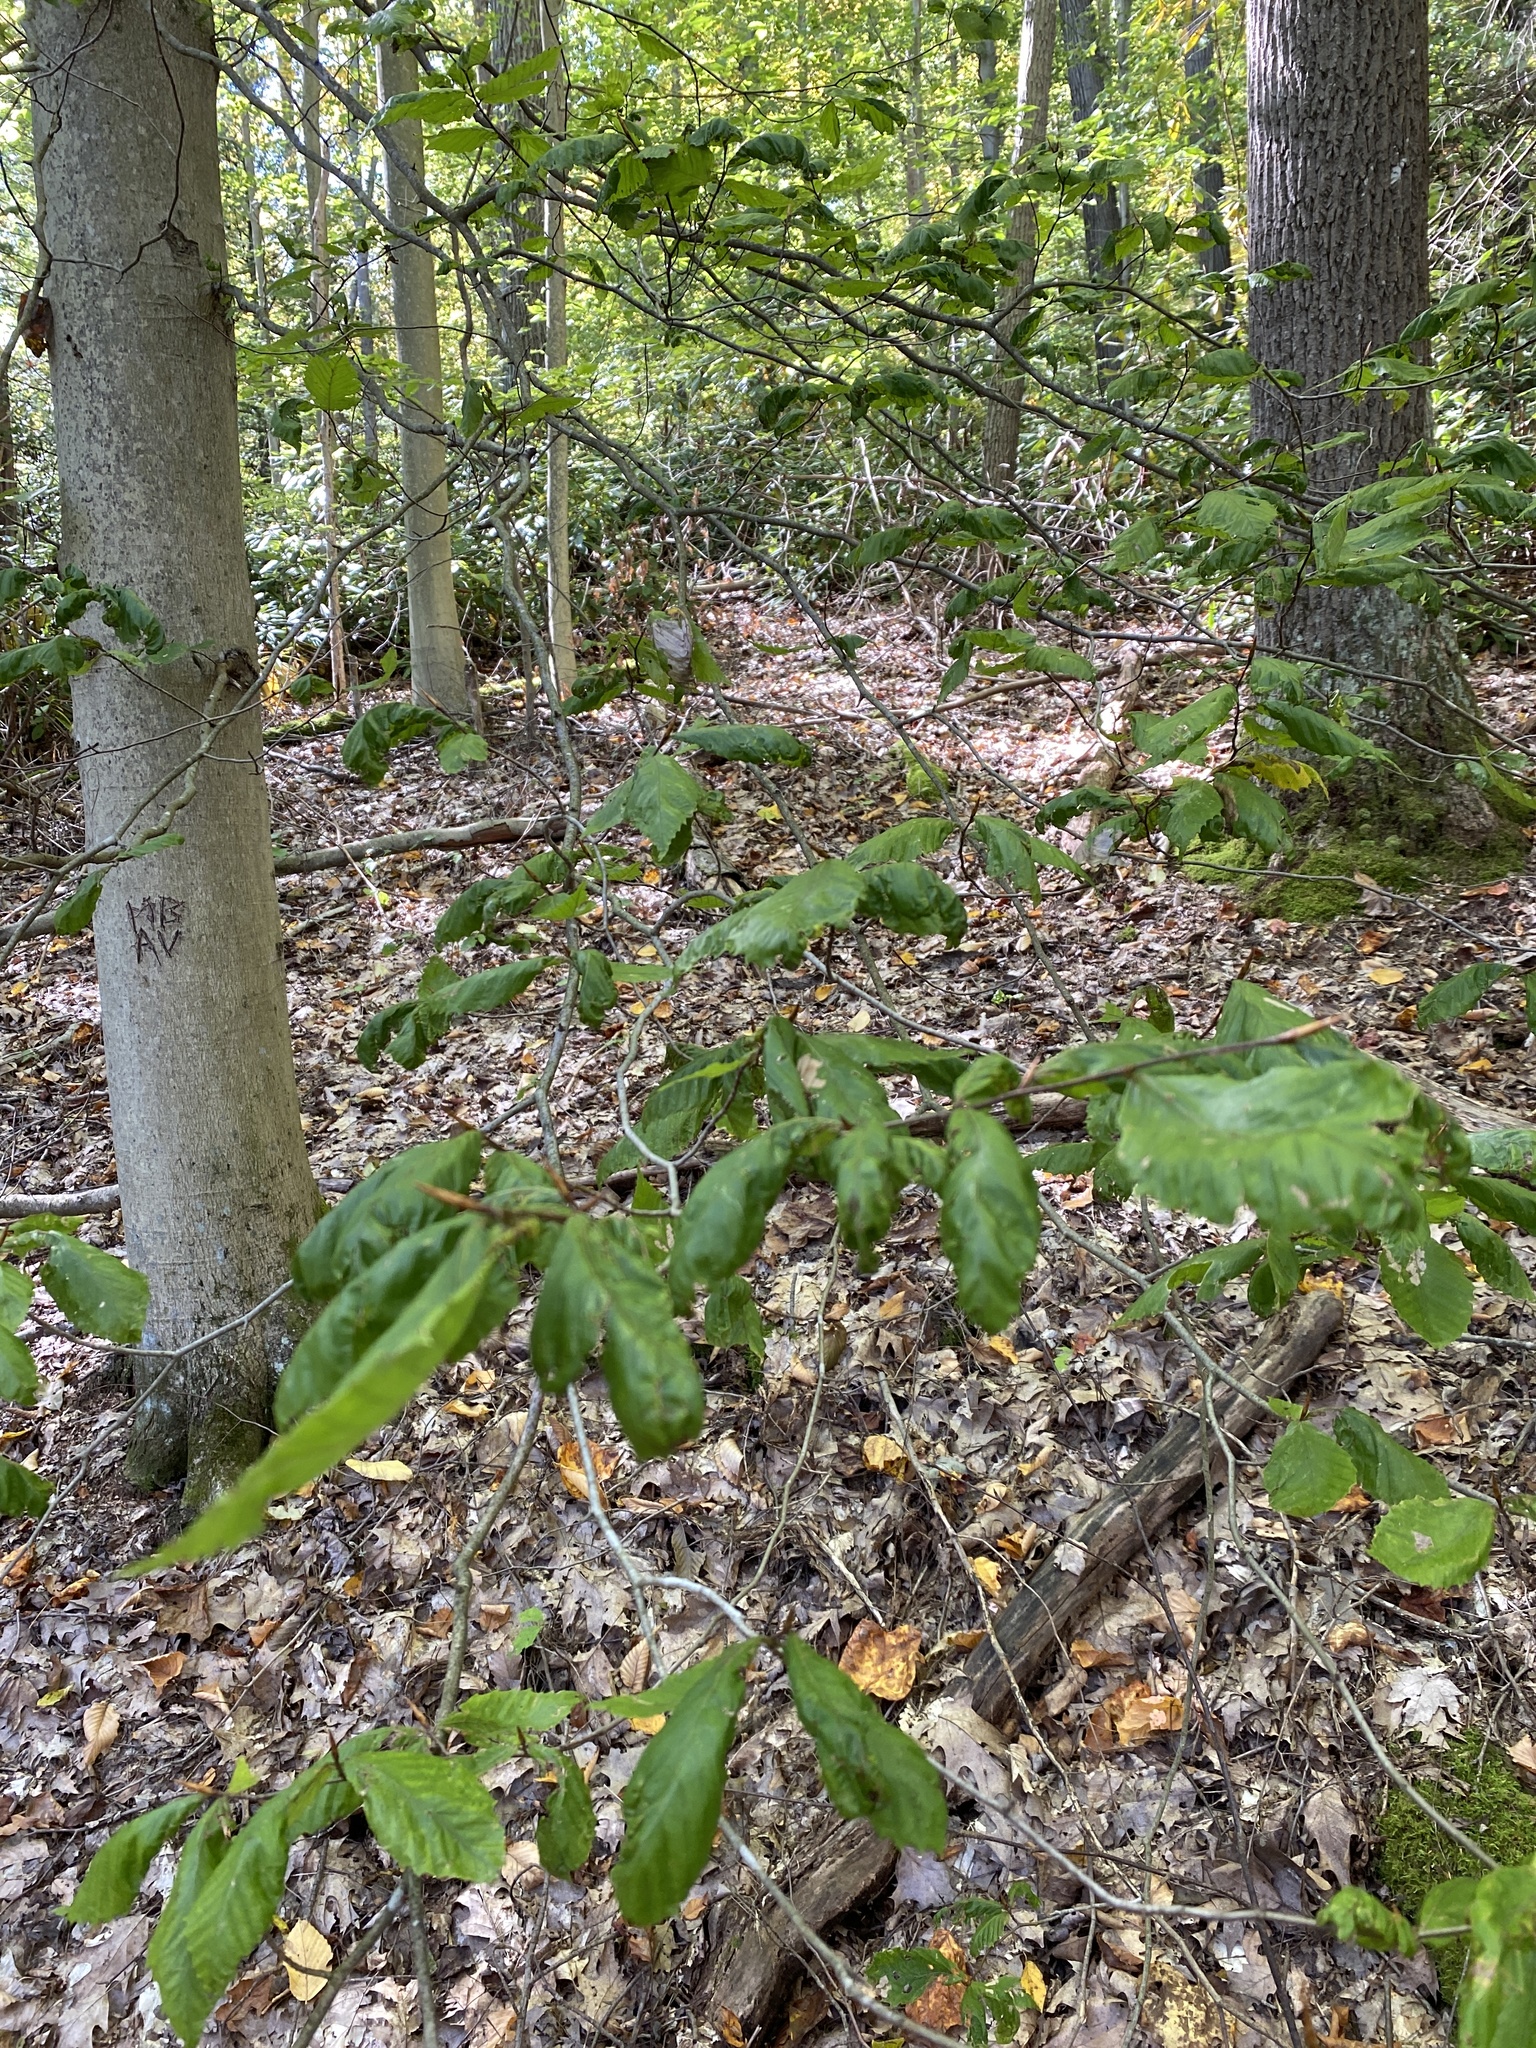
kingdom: Plantae
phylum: Tracheophyta
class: Magnoliopsida
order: Fagales
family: Fagaceae
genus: Fagus
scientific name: Fagus grandifolia
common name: American beech
